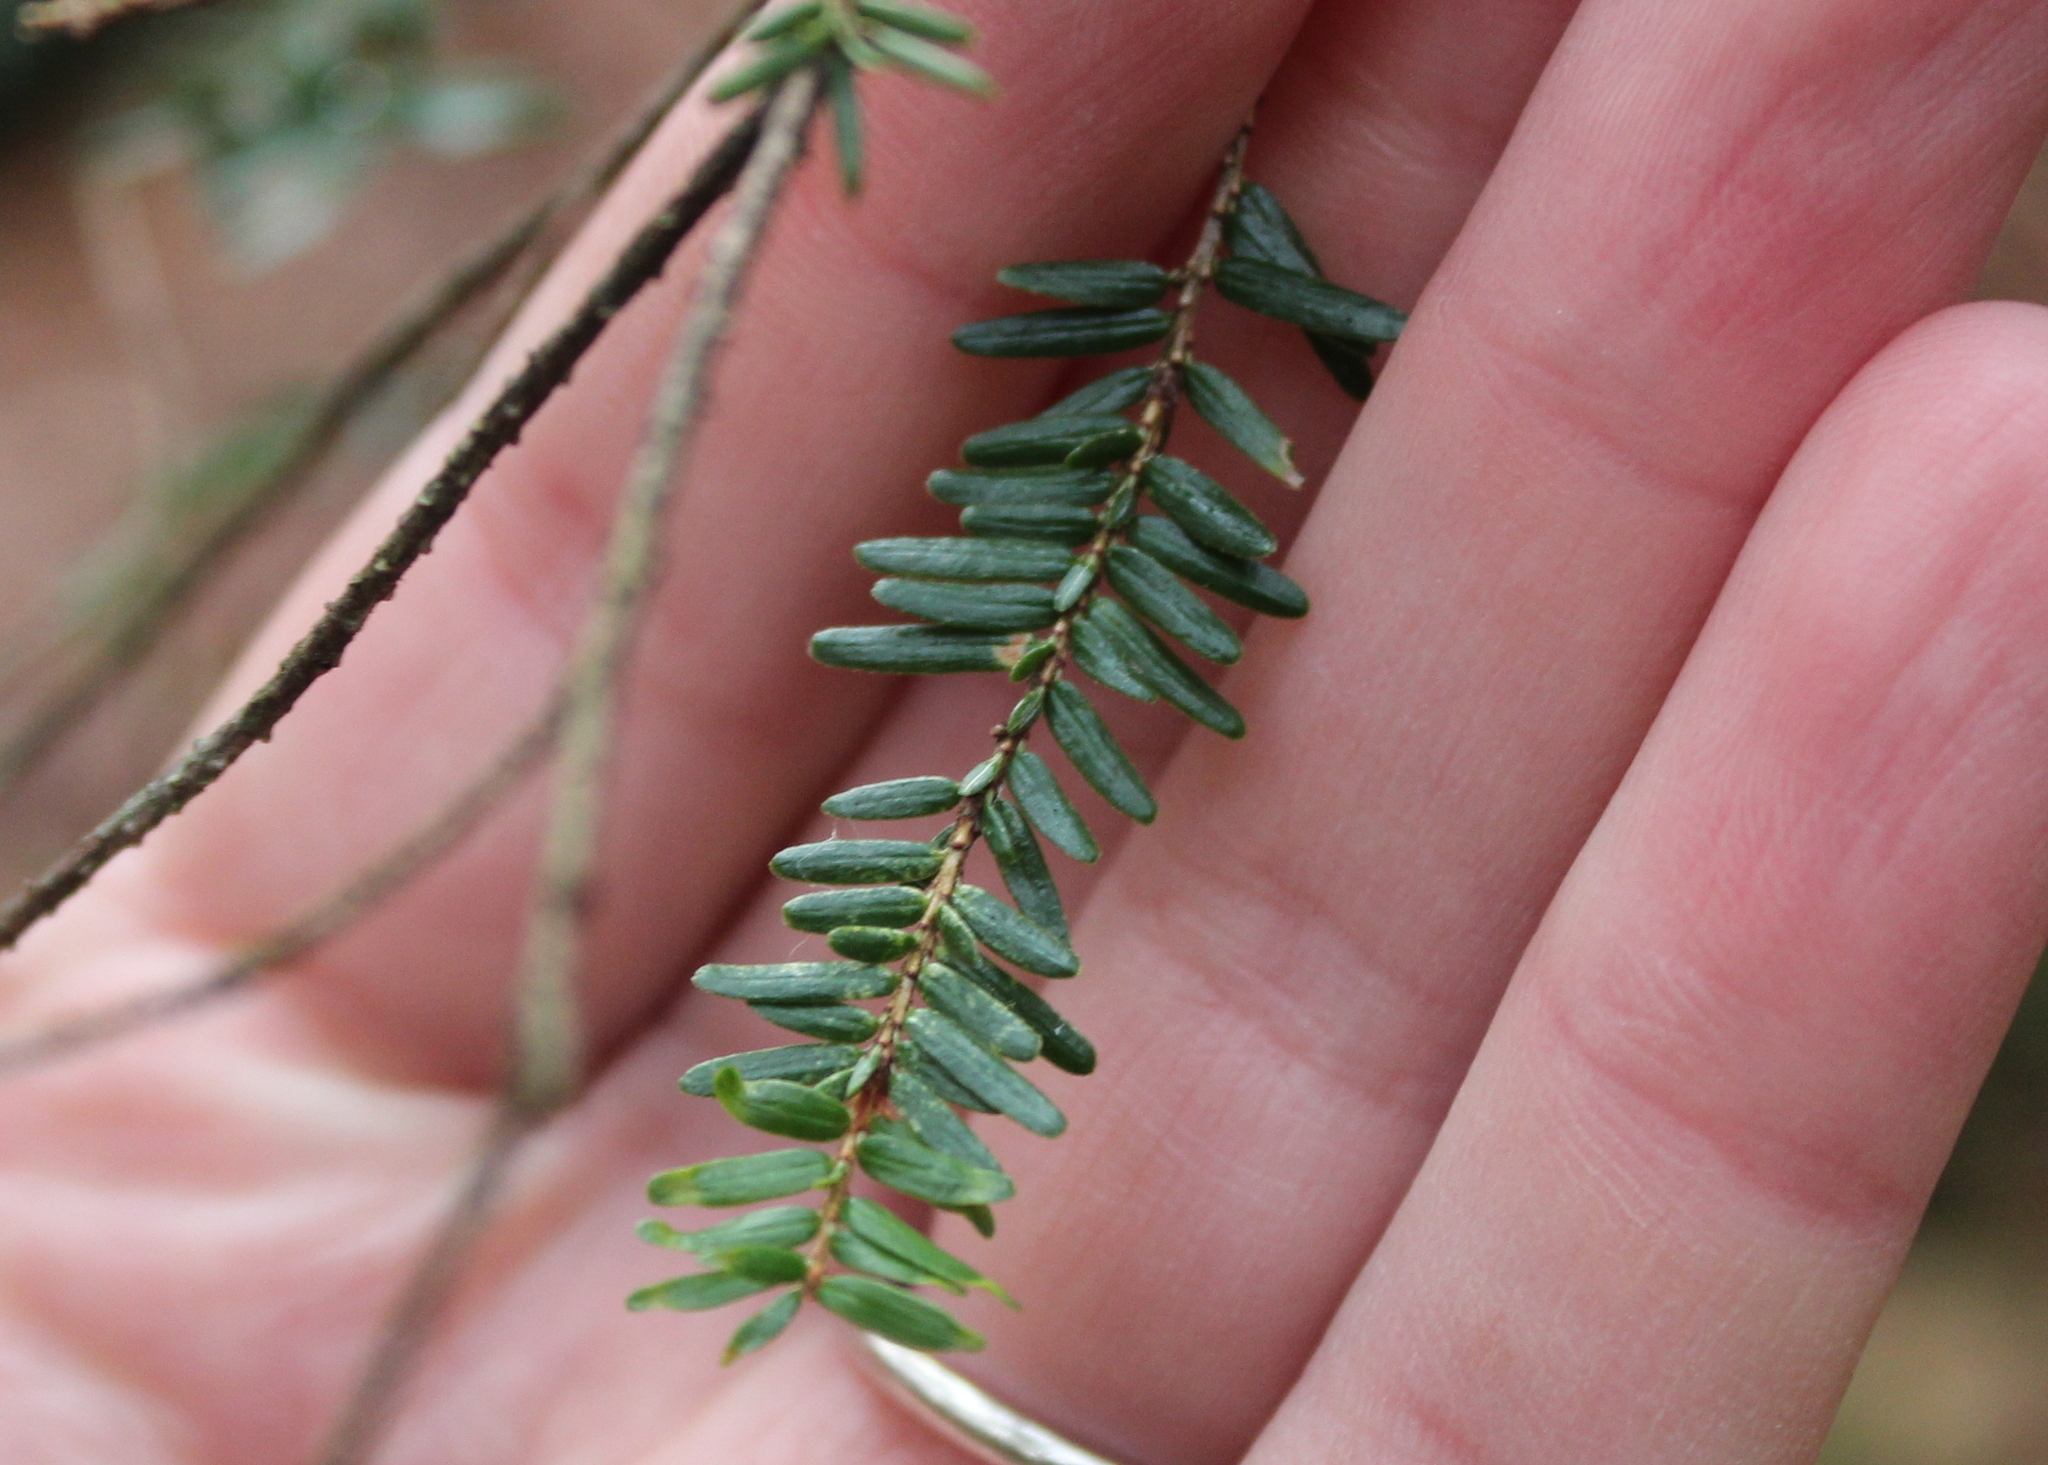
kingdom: Plantae
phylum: Tracheophyta
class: Pinopsida
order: Pinales
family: Pinaceae
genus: Tsuga
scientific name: Tsuga canadensis
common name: Eastern hemlock
